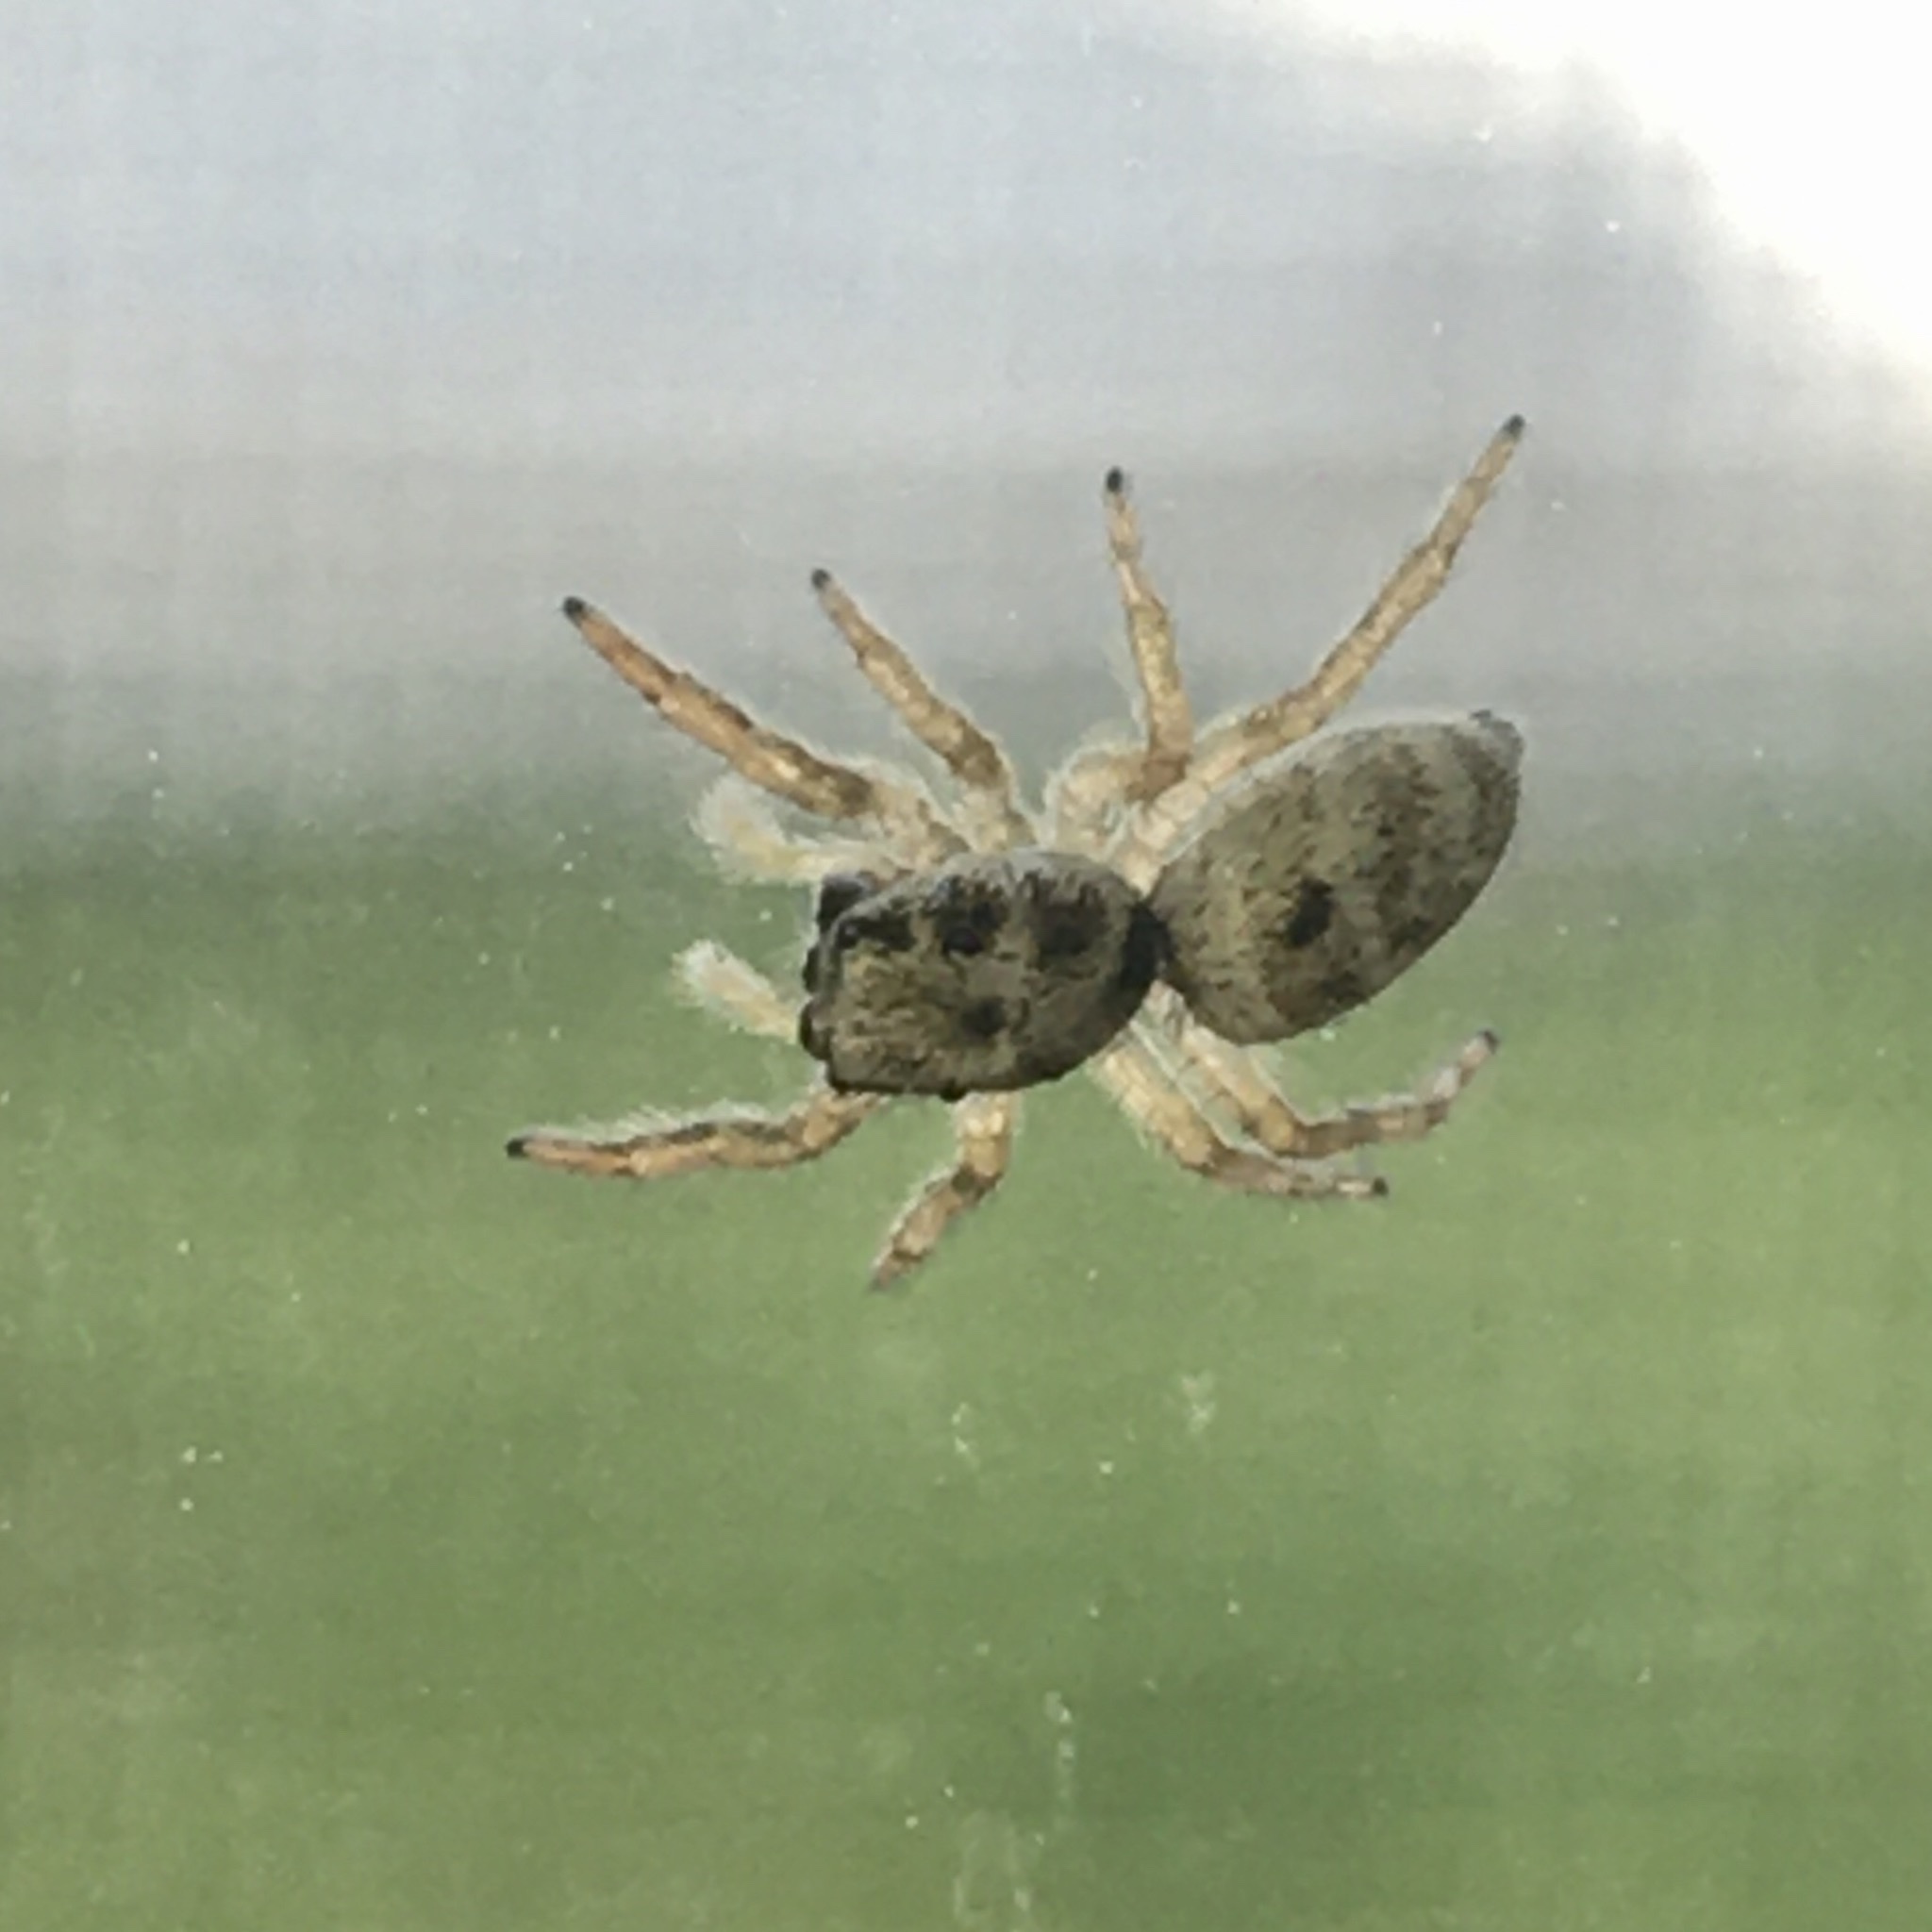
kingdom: Animalia
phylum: Arthropoda
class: Arachnida
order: Araneae
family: Salticidae
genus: Salticus
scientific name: Salticus
